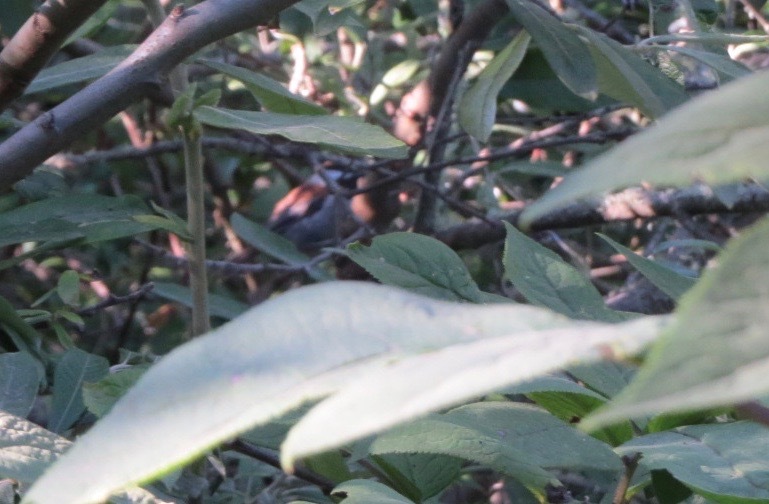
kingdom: Animalia
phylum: Chordata
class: Aves
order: Passeriformes
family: Paridae
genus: Poecile
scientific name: Poecile rufescens
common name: Chestnut-backed chickadee
